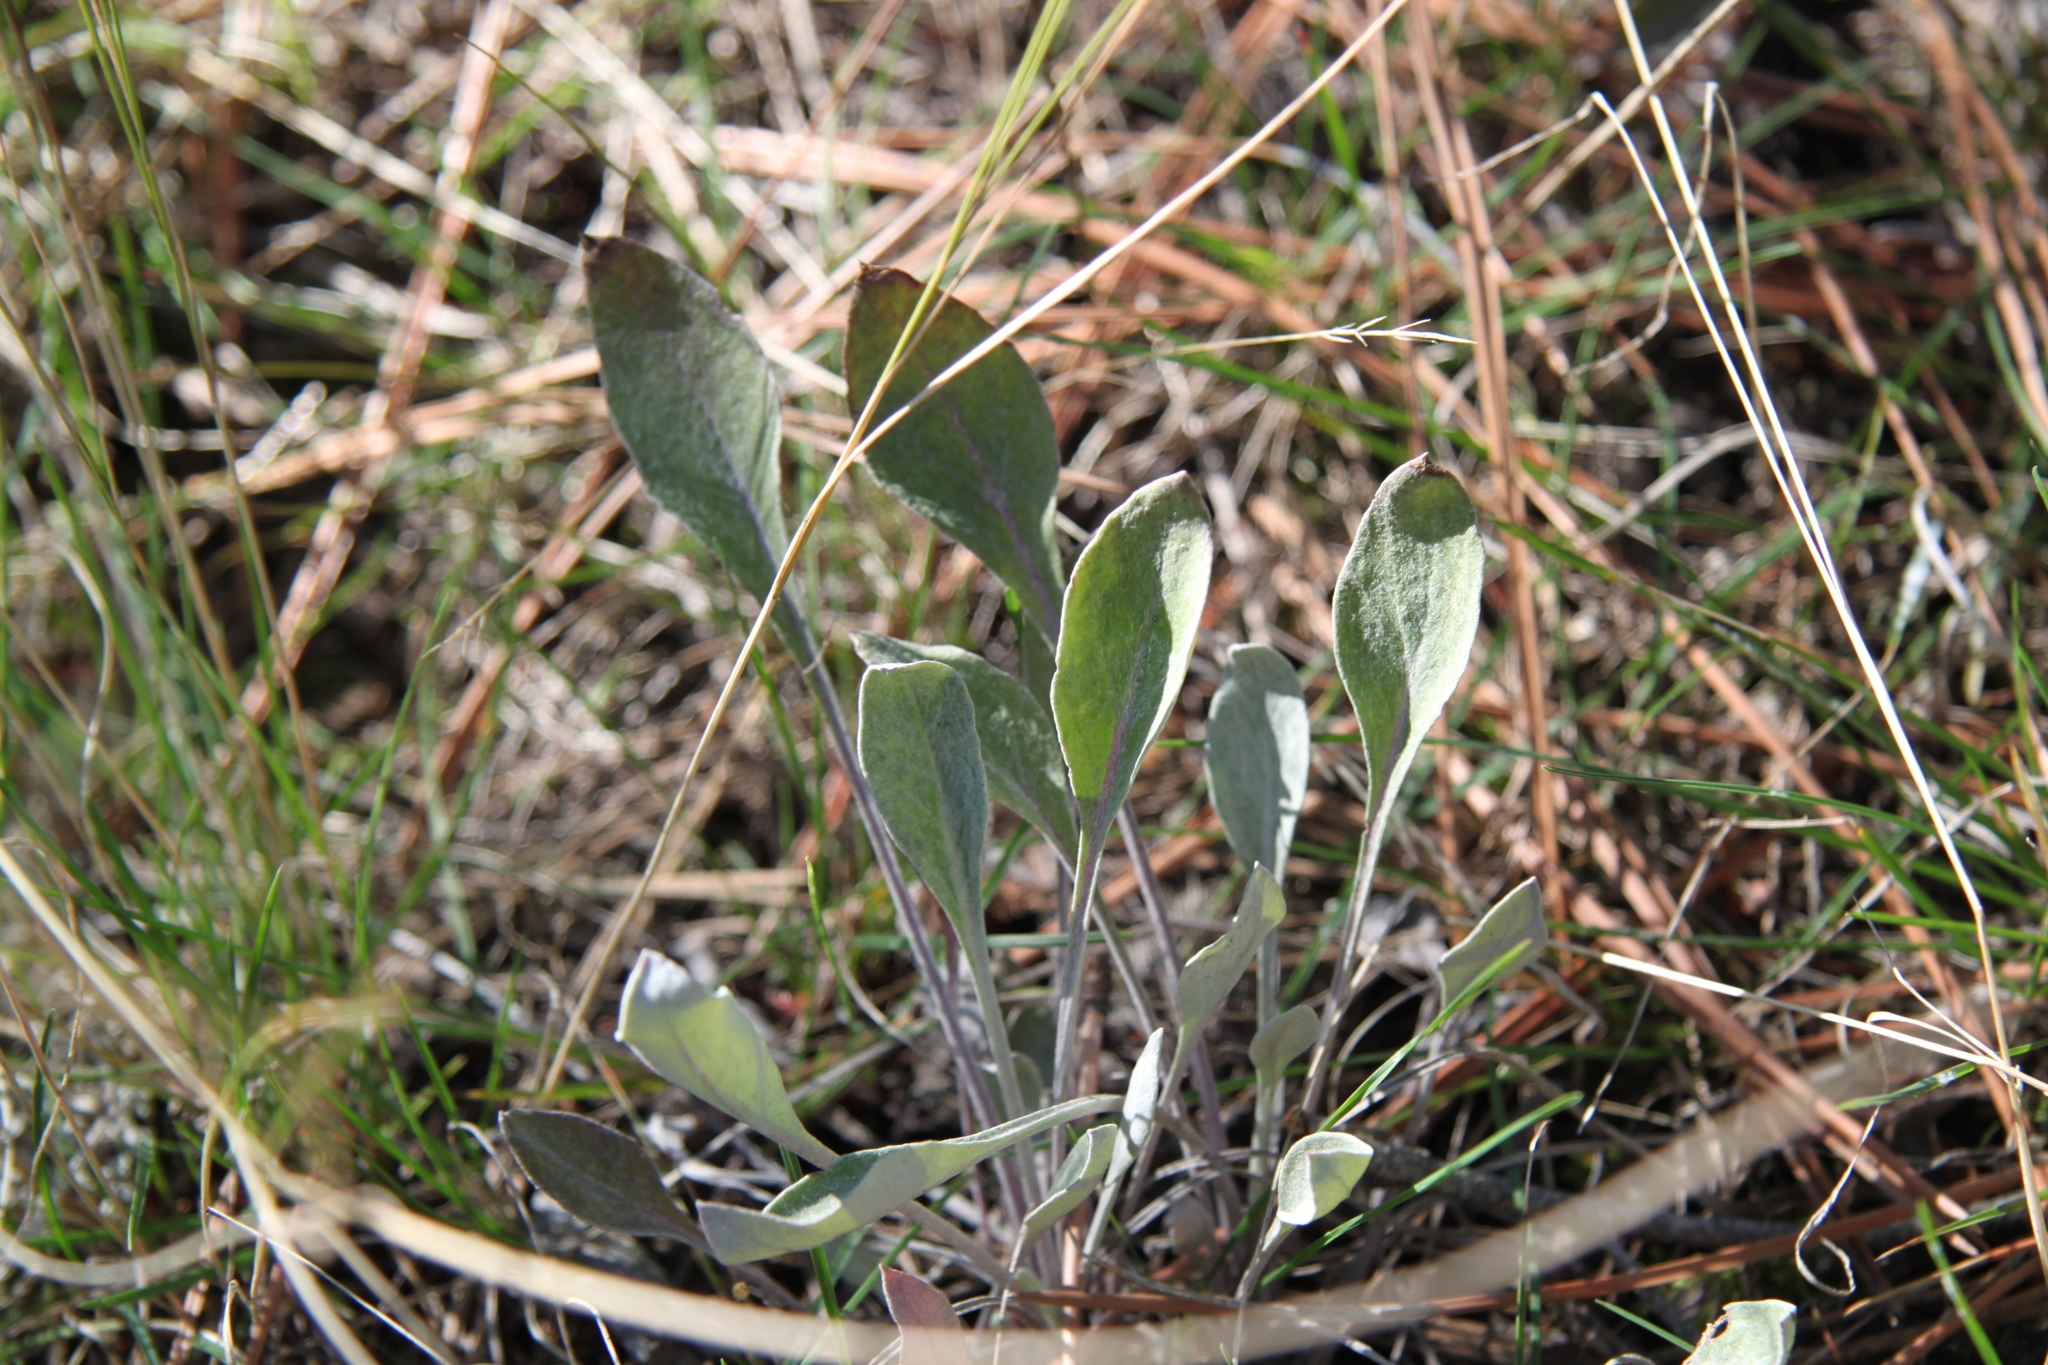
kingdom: Plantae
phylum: Tracheophyta
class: Magnoliopsida
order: Caryophyllales
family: Polygonaceae
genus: Eriogonum
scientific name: Eriogonum niveum
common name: Snow wild buckwheat
